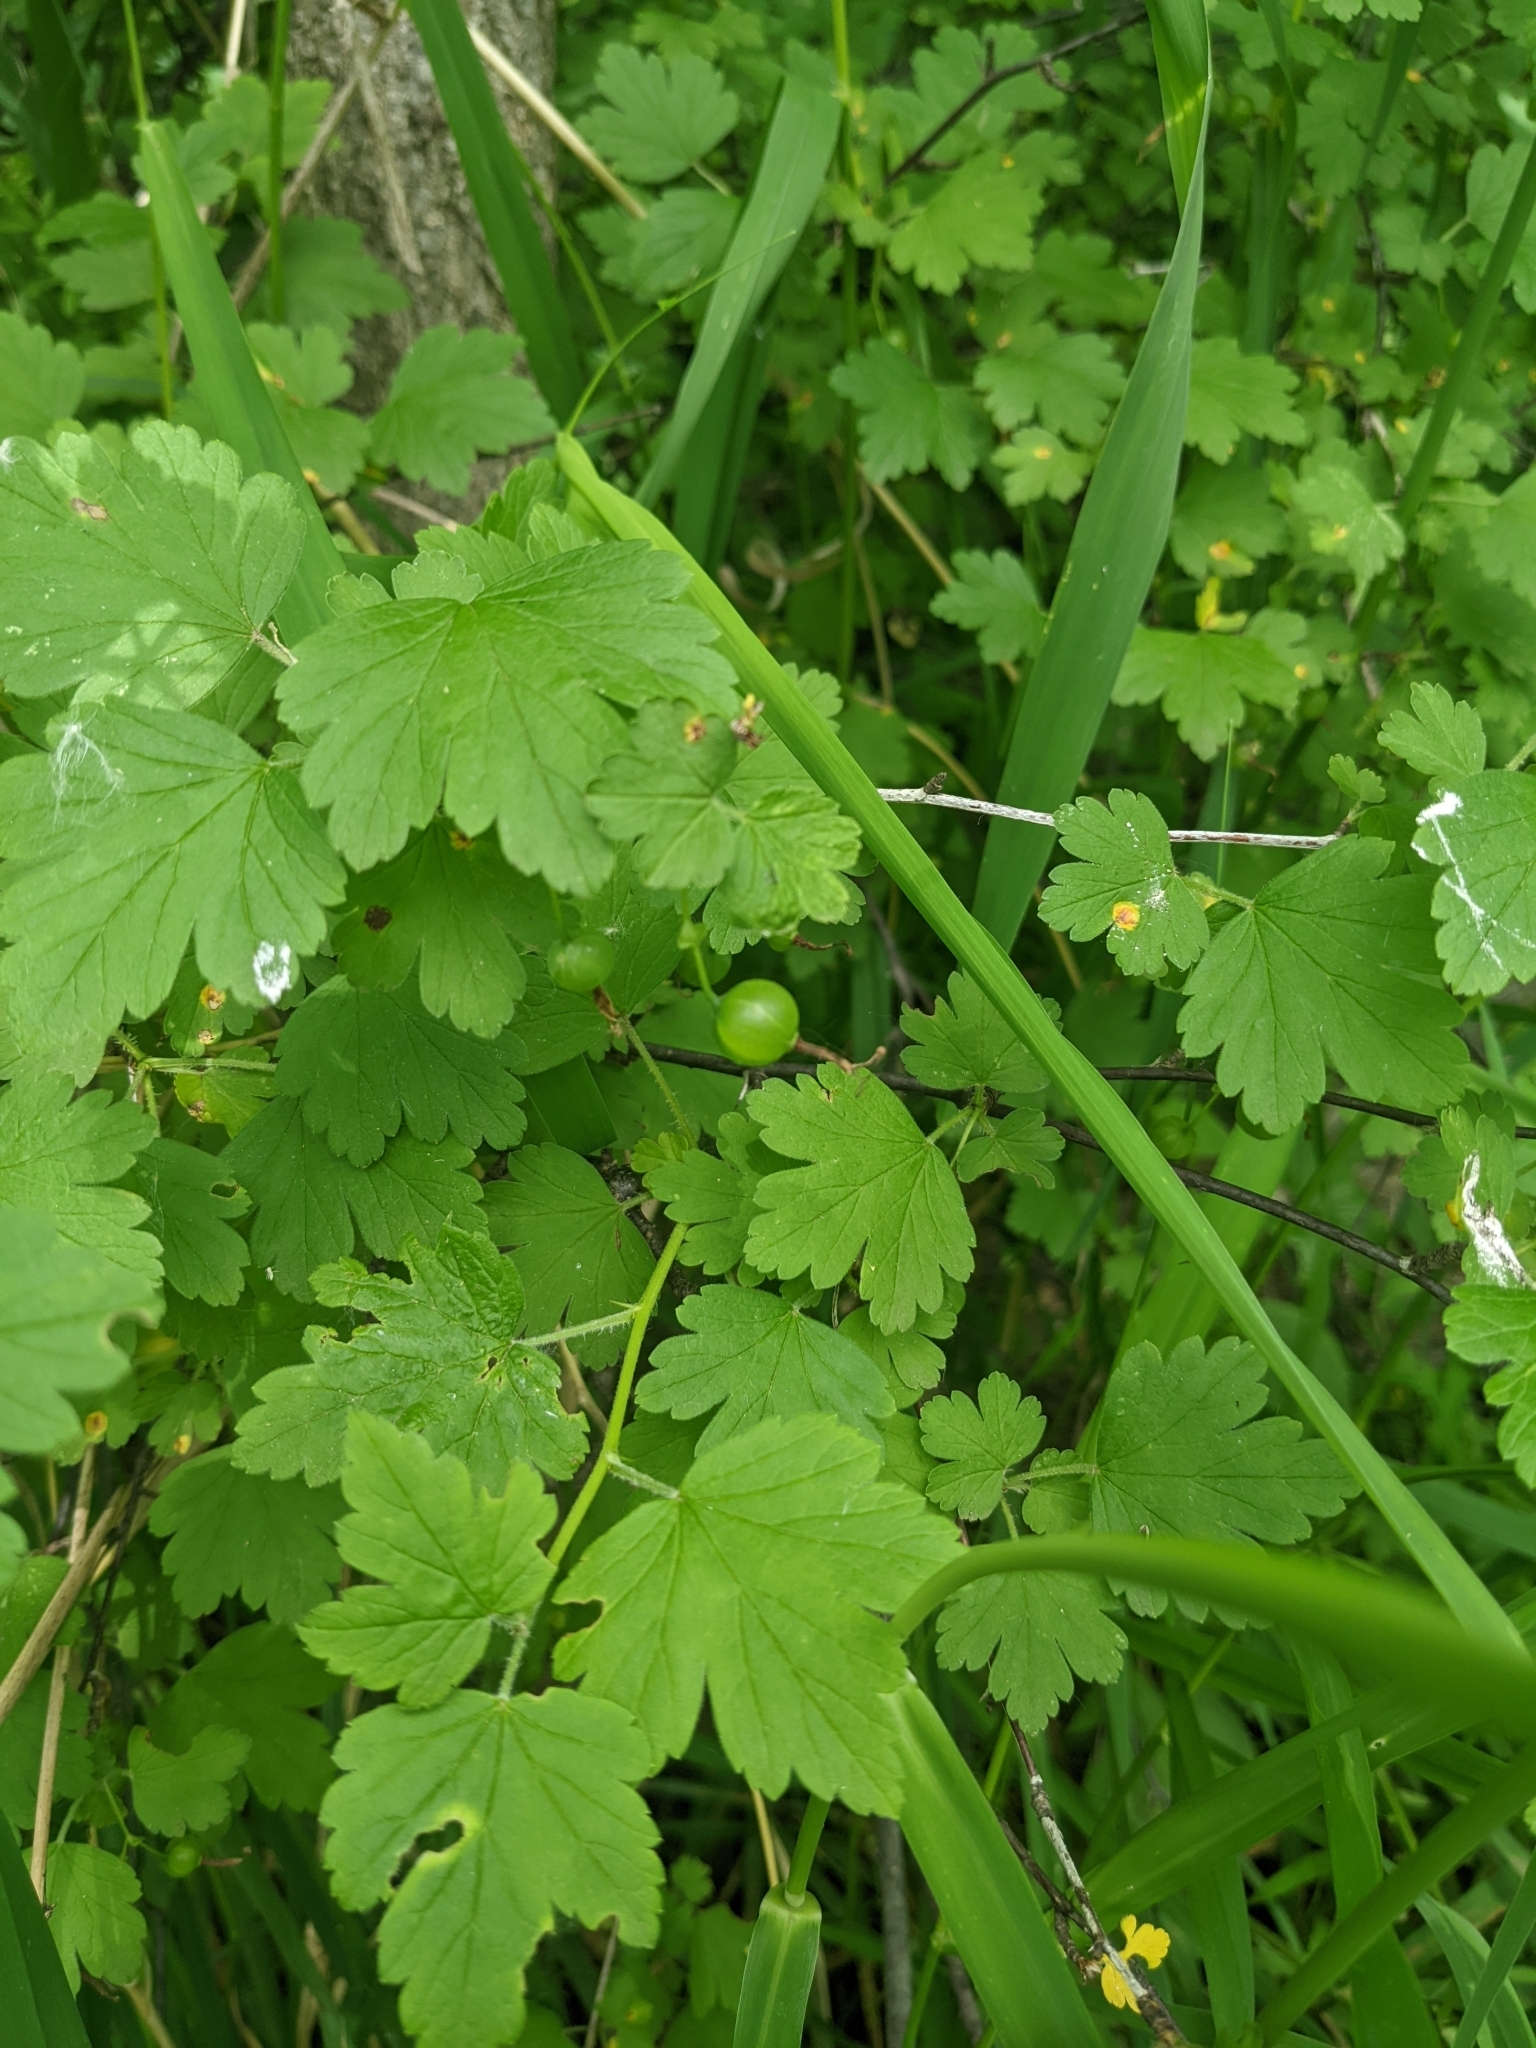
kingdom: Plantae
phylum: Tracheophyta
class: Magnoliopsida
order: Saxifragales
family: Grossulariaceae
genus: Ribes
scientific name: Ribes cynosbati
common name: American gooseberry
